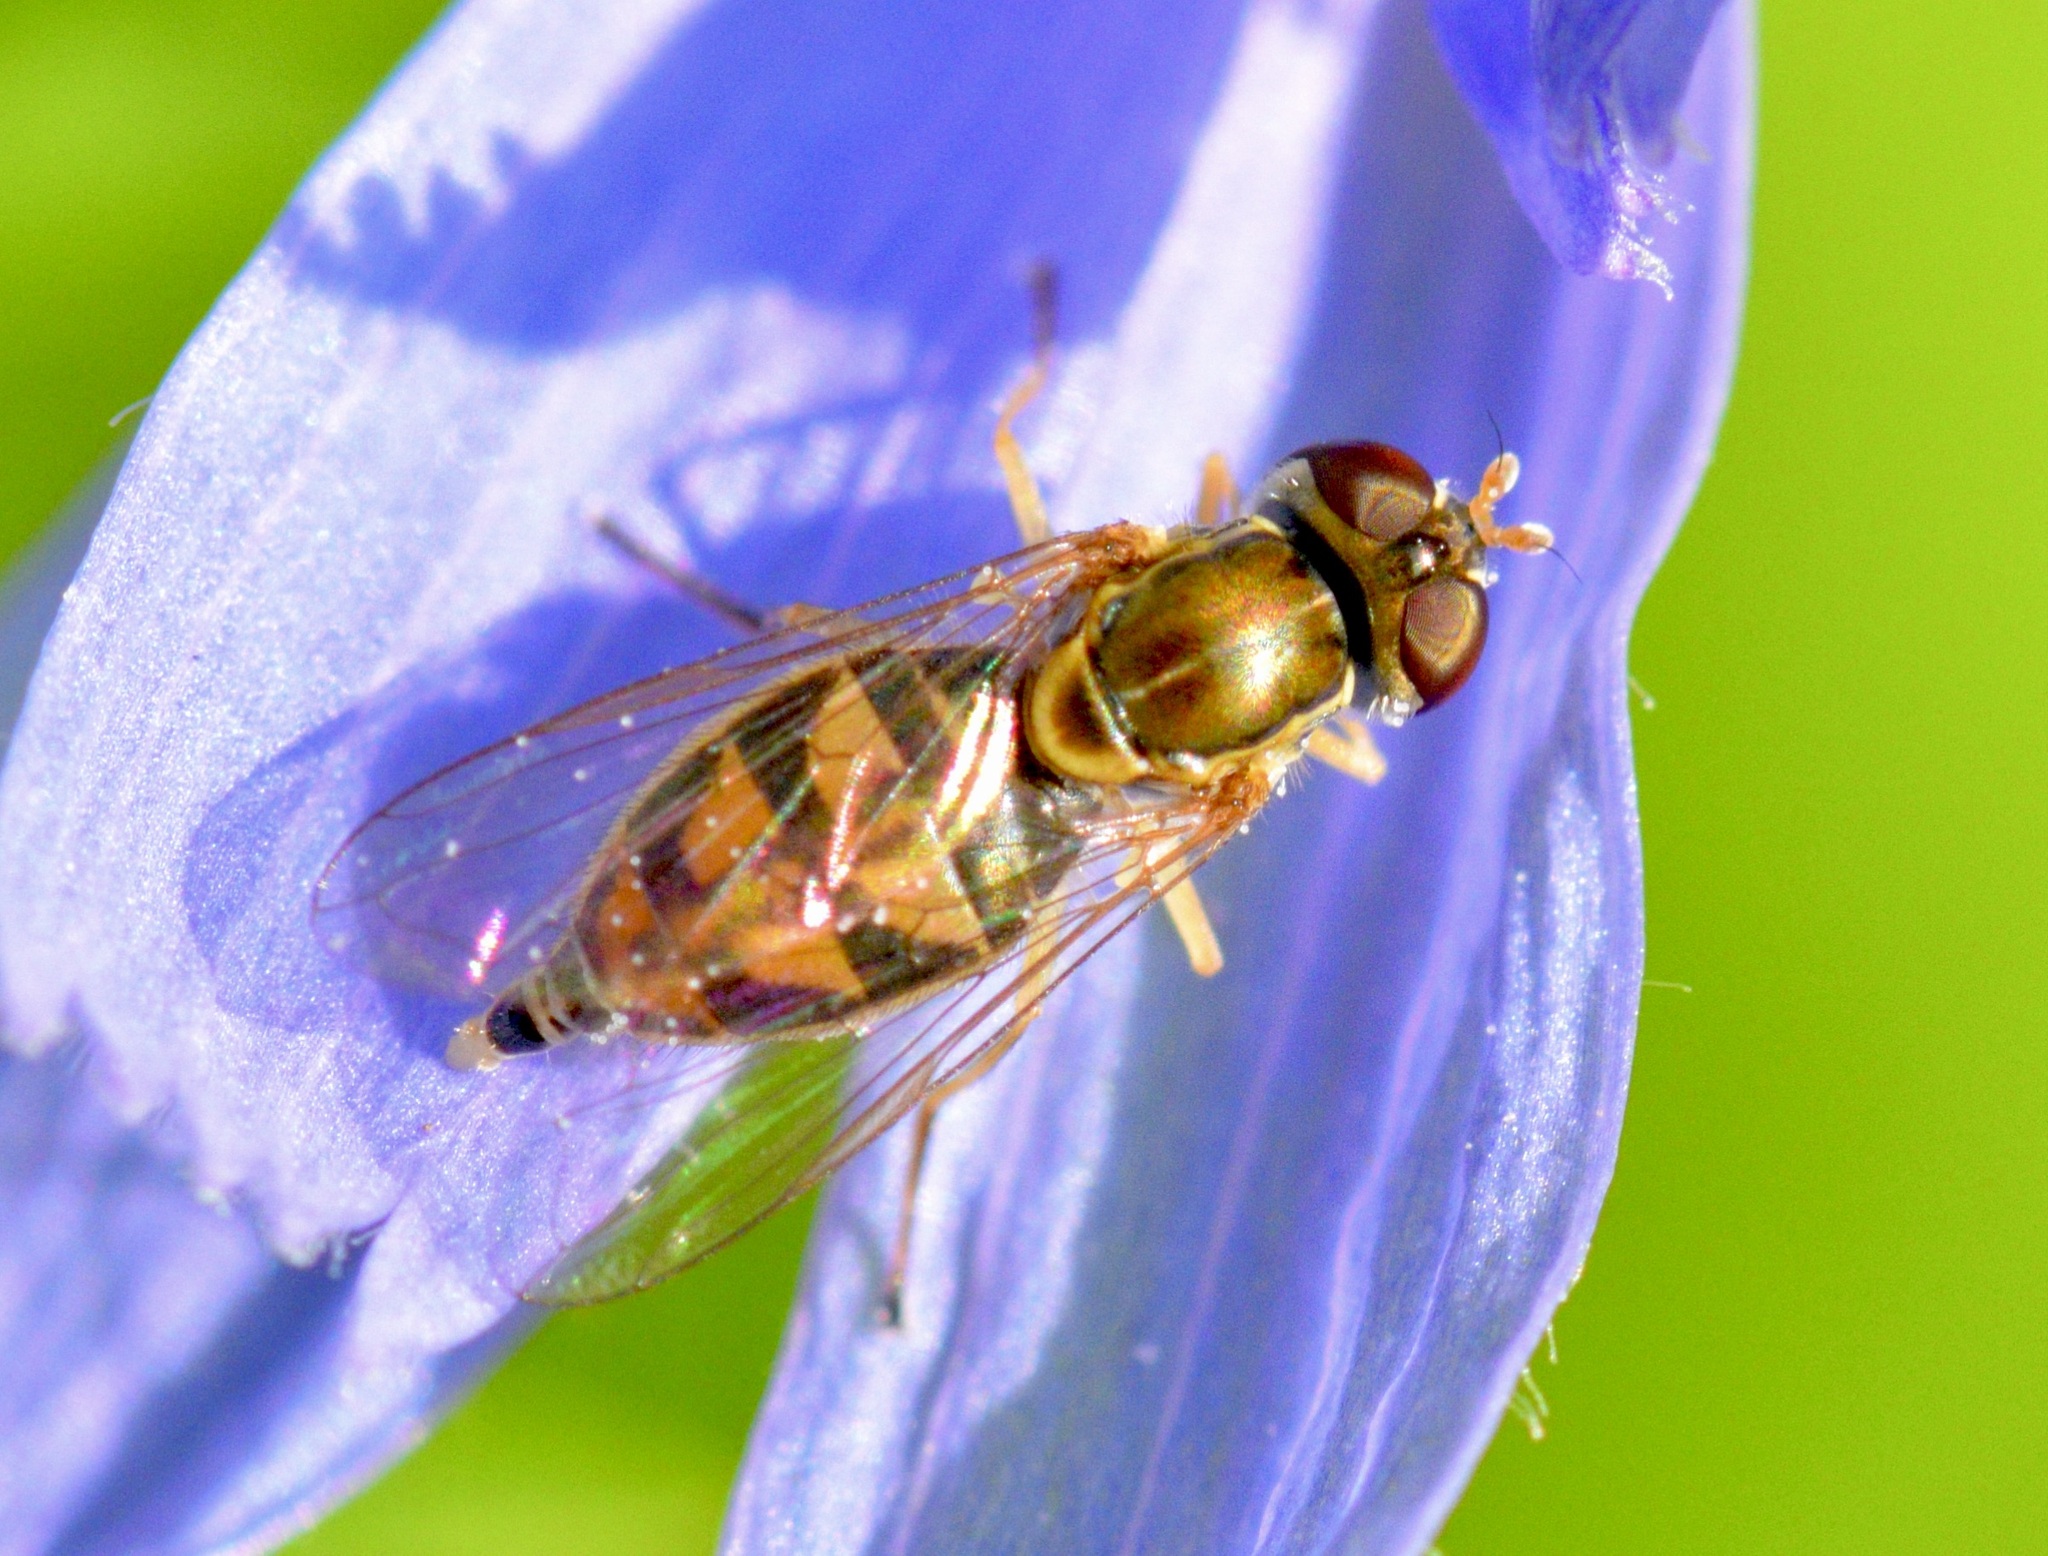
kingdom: Animalia
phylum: Arthropoda
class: Insecta
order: Diptera
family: Syrphidae
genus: Toxomerus
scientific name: Toxomerus marginatus
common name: Syrphid fly
